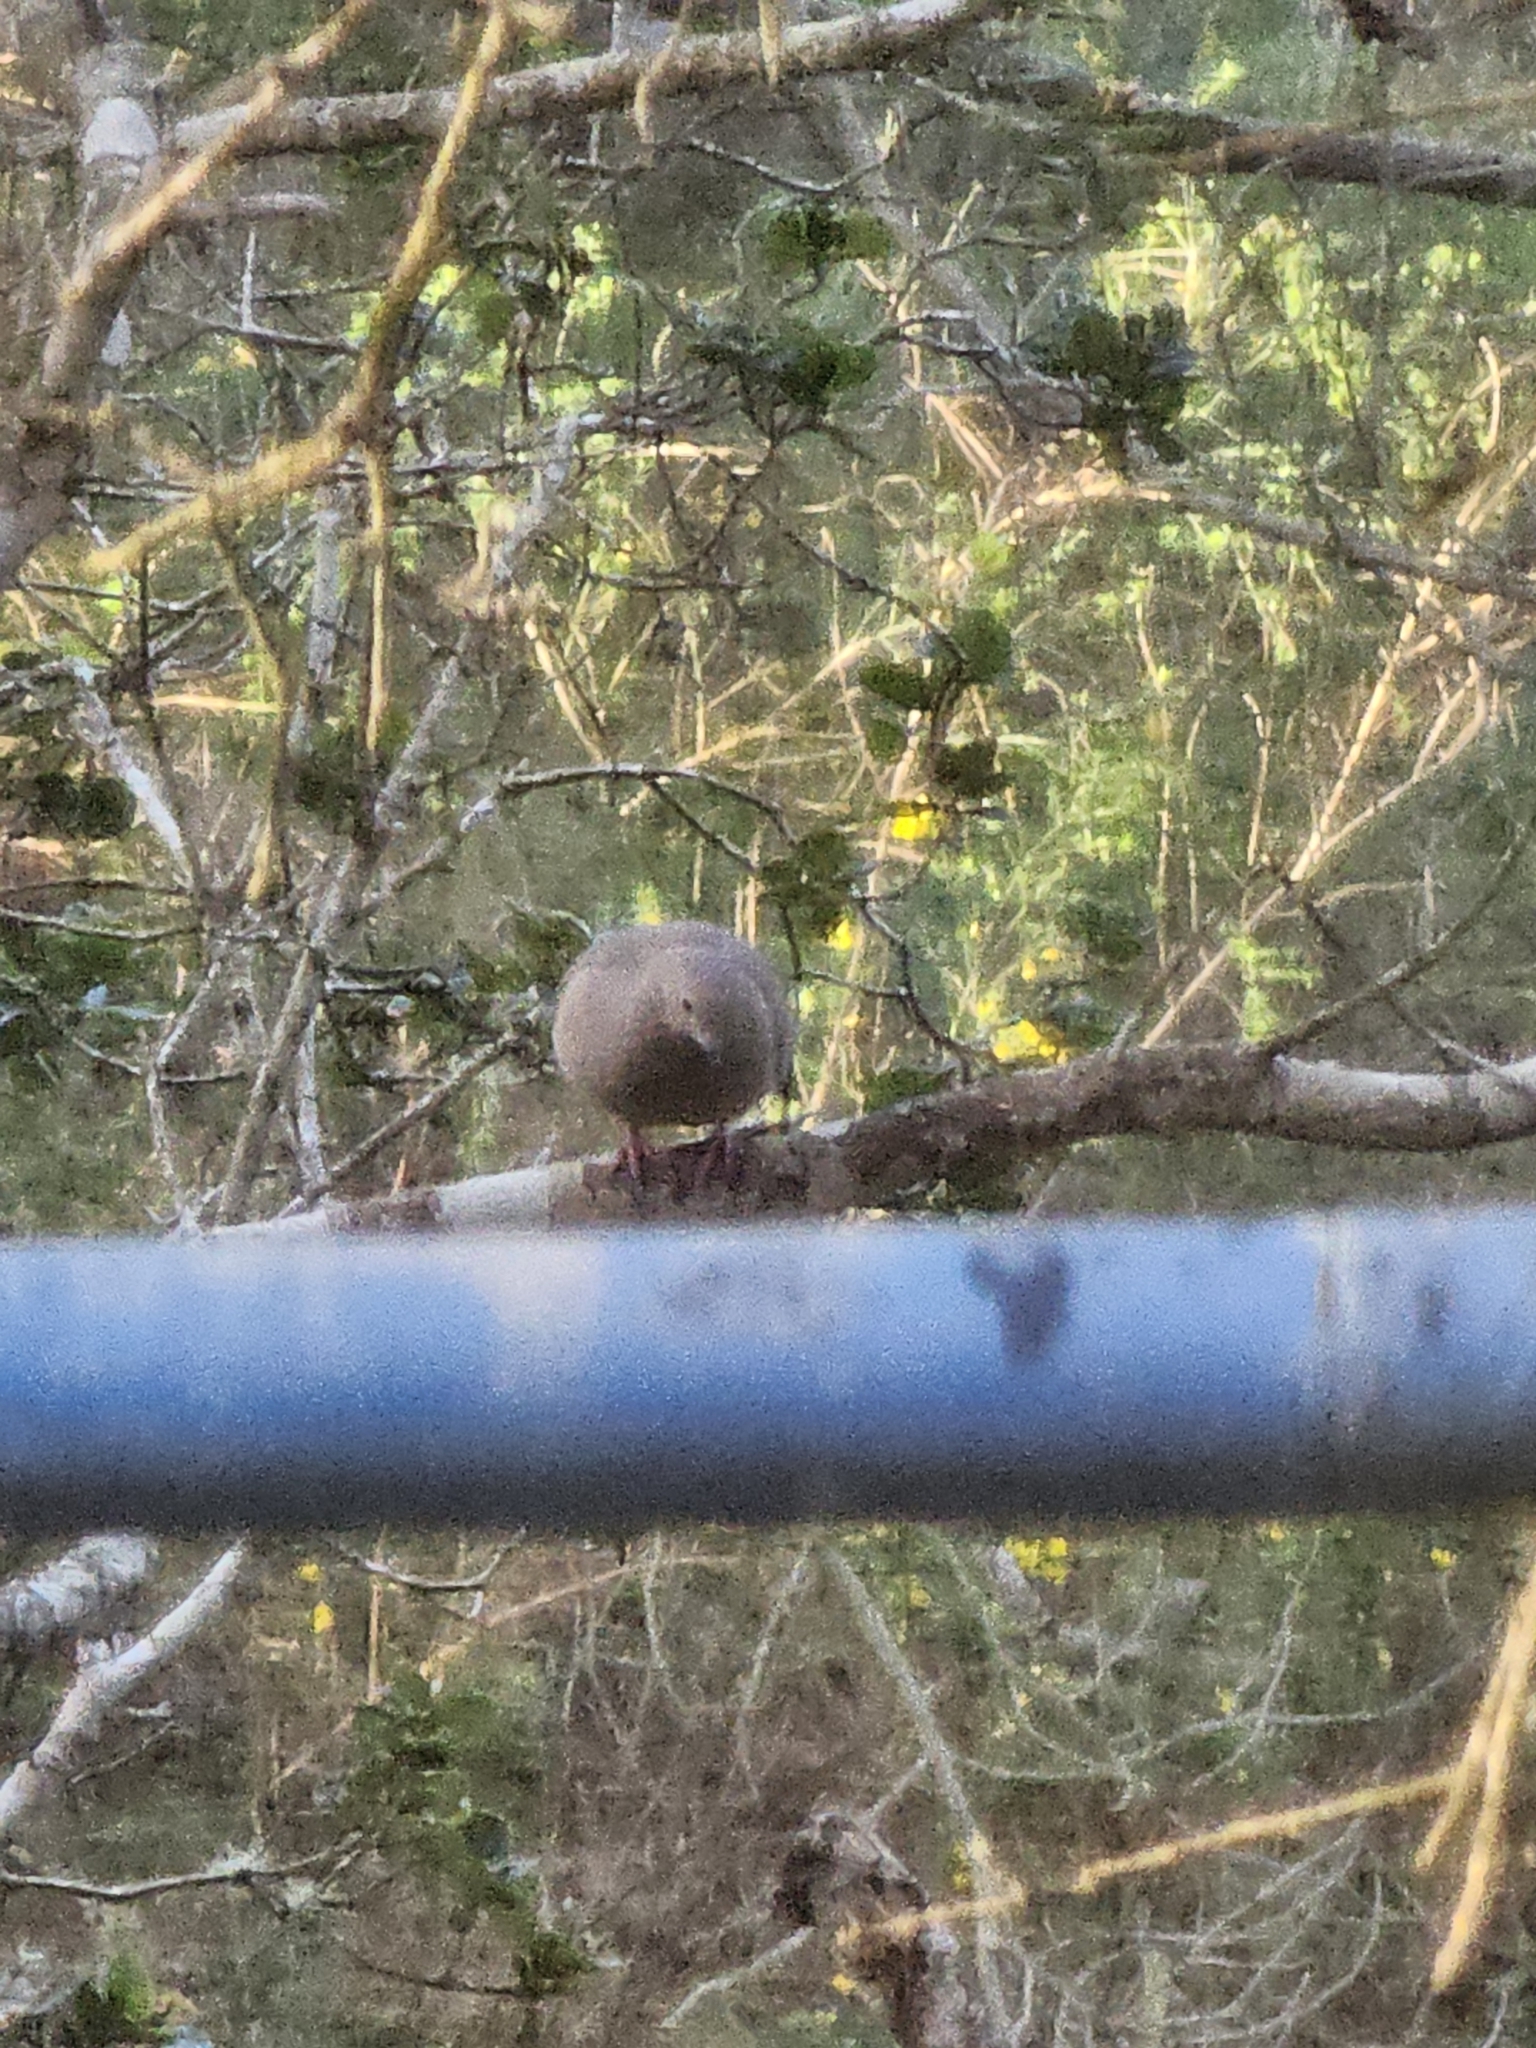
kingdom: Animalia
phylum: Chordata
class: Aves
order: Columbiformes
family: Columbidae
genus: Zenaida
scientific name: Zenaida macroura
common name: Mourning dove
